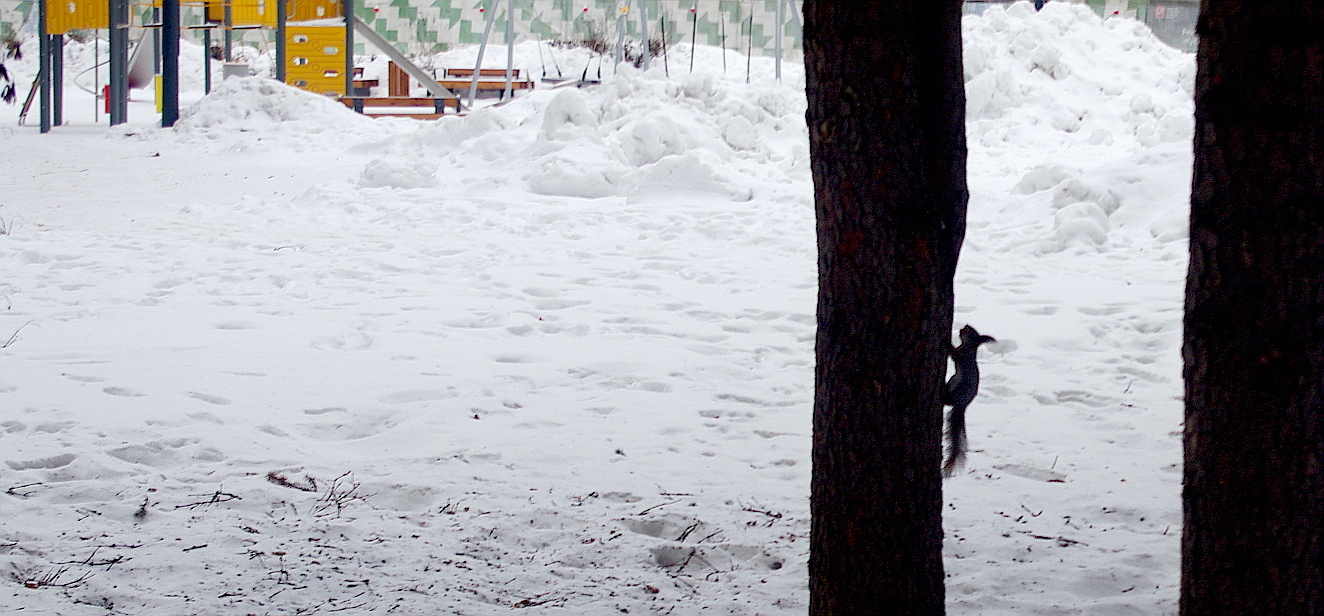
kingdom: Animalia
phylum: Chordata
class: Mammalia
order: Rodentia
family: Sciuridae
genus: Sciurus
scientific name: Sciurus vulgaris
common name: Eurasian red squirrel
